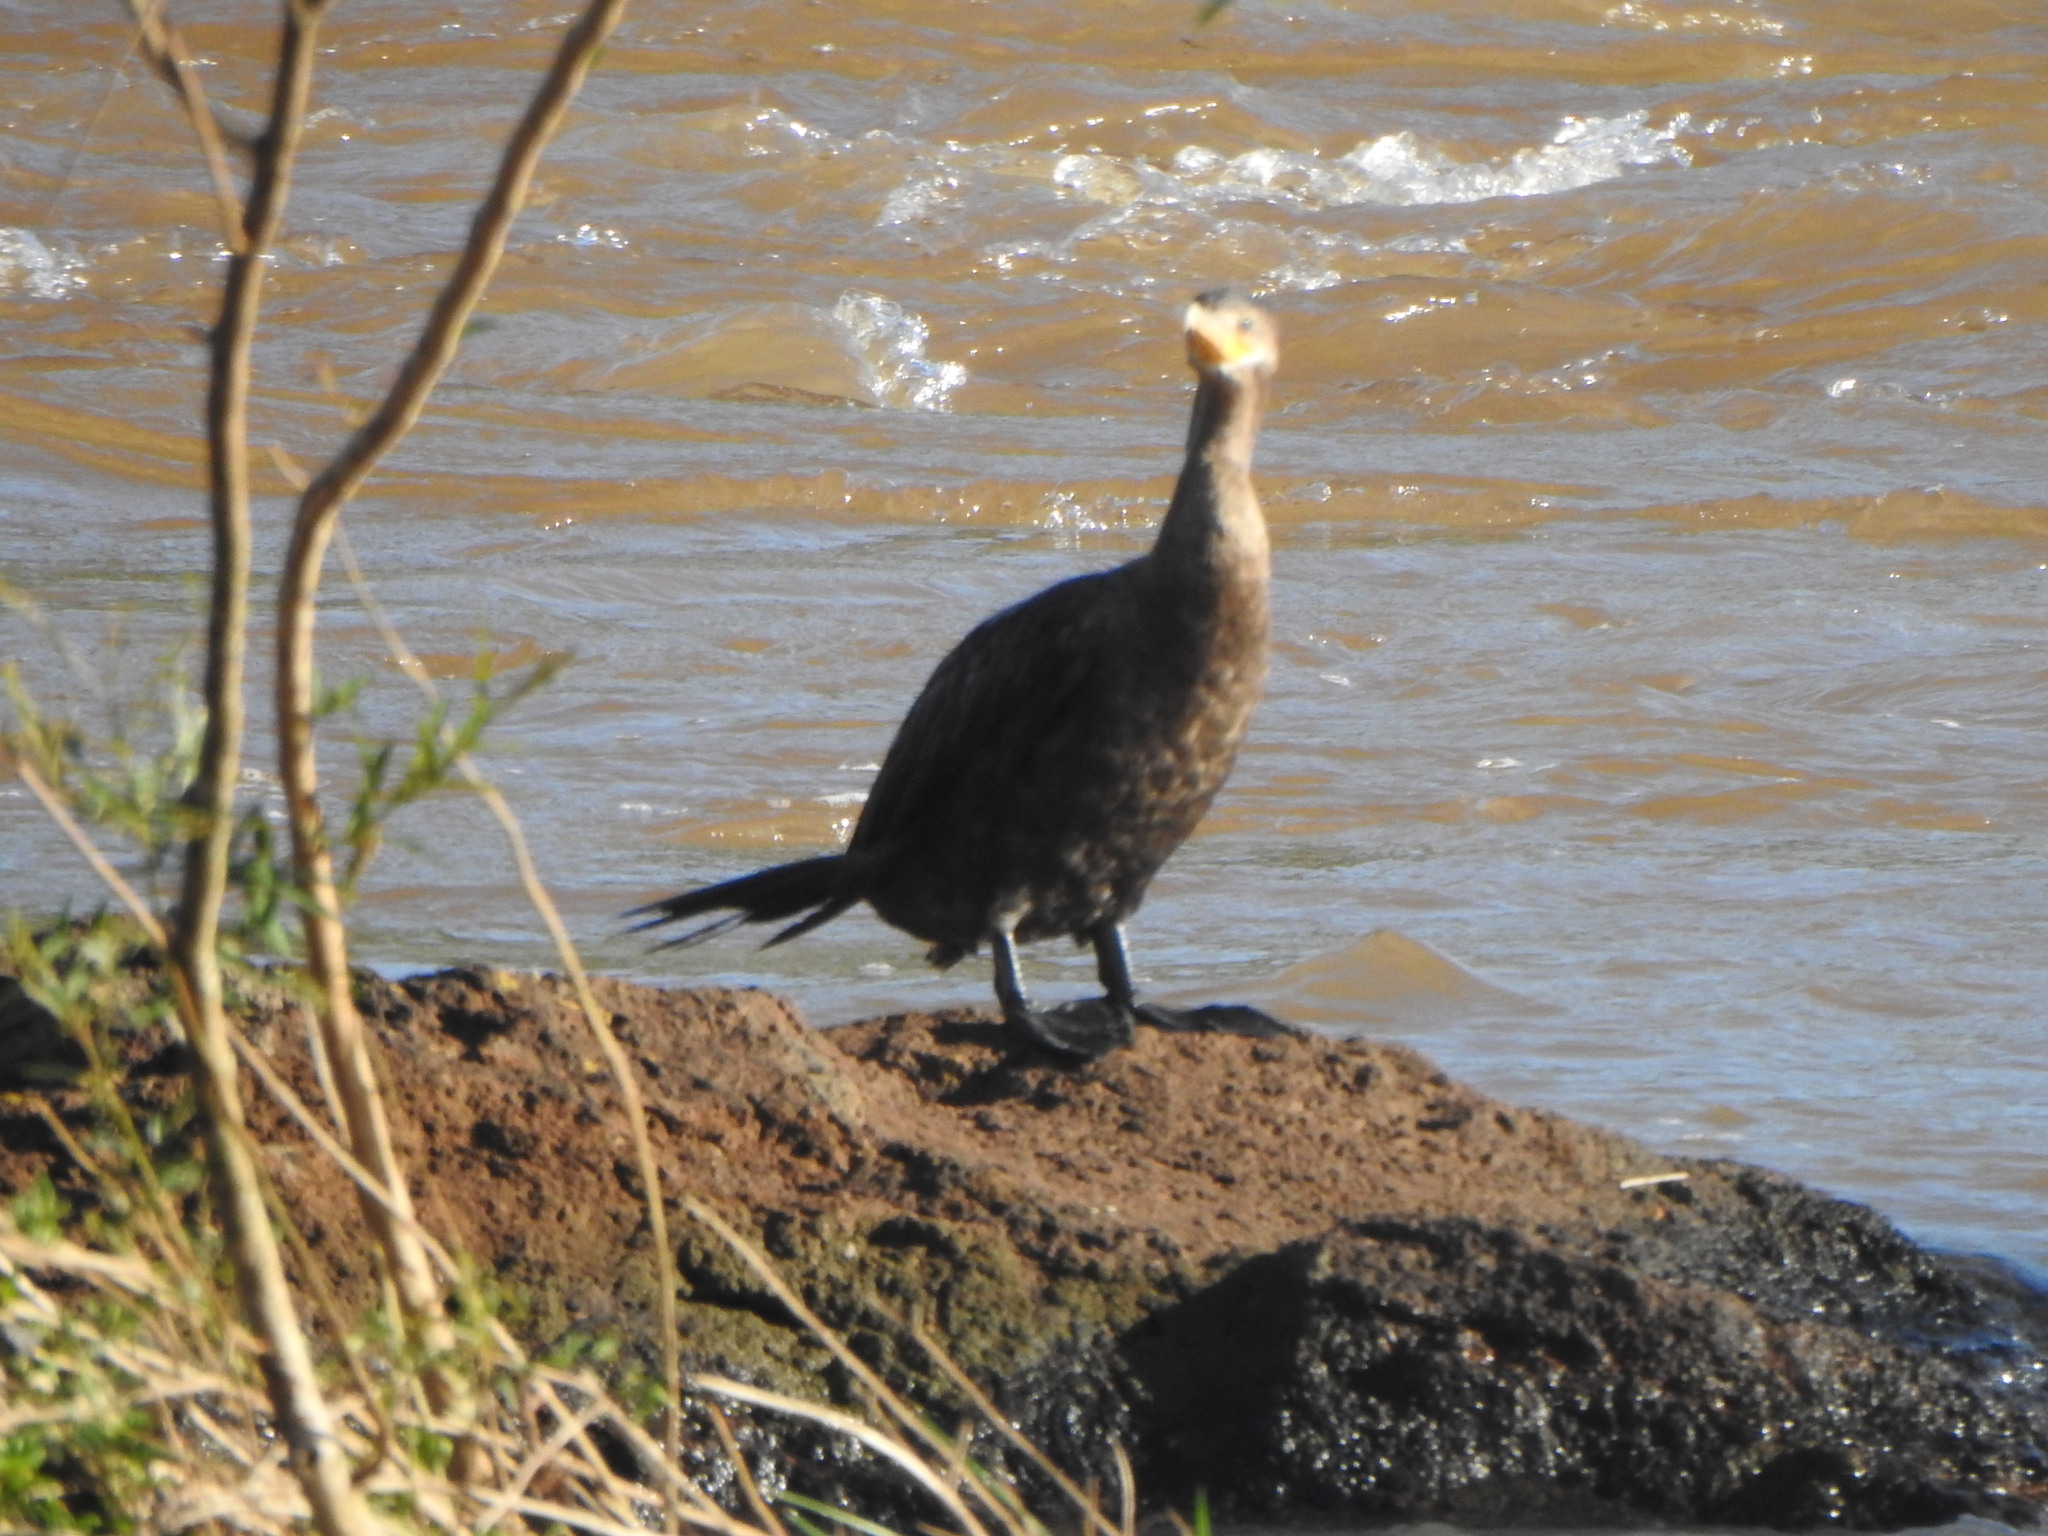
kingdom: Animalia
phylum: Chordata
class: Aves
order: Suliformes
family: Phalacrocoracidae
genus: Phalacrocorax
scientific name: Phalacrocorax brasilianus
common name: Neotropic cormorant
